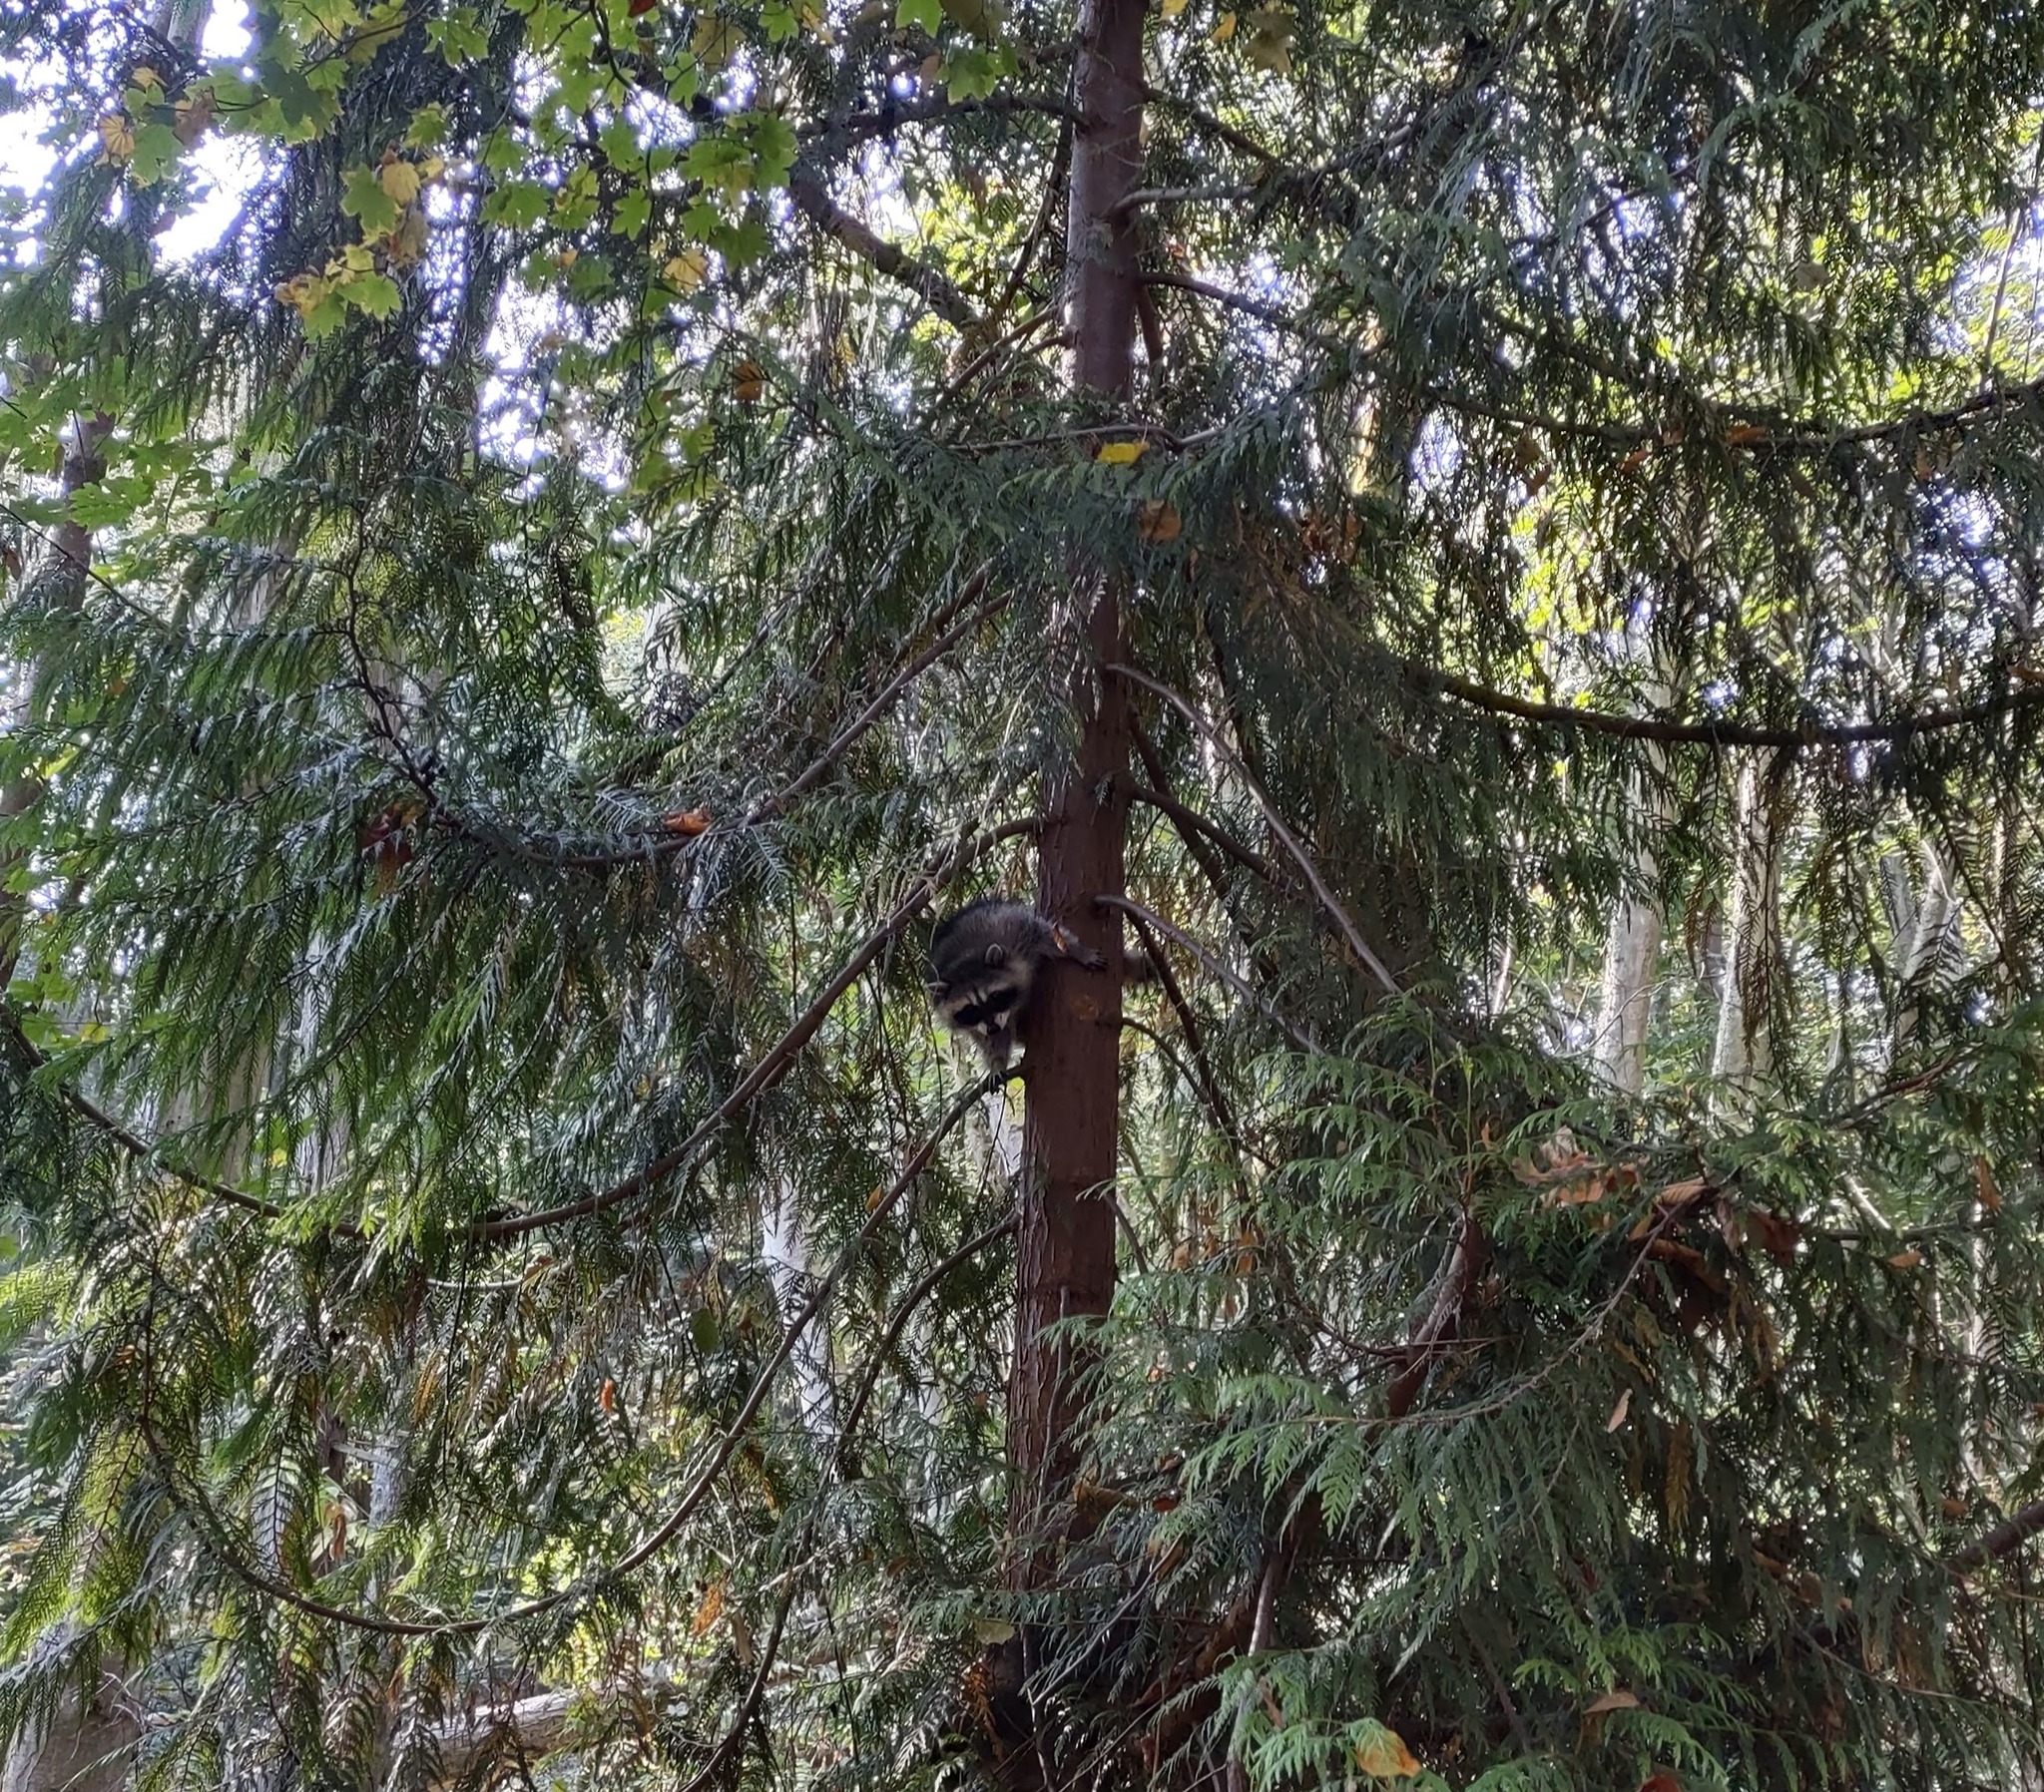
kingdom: Animalia
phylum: Chordata
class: Mammalia
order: Carnivora
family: Procyonidae
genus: Procyon
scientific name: Procyon lotor
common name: Raccoon
